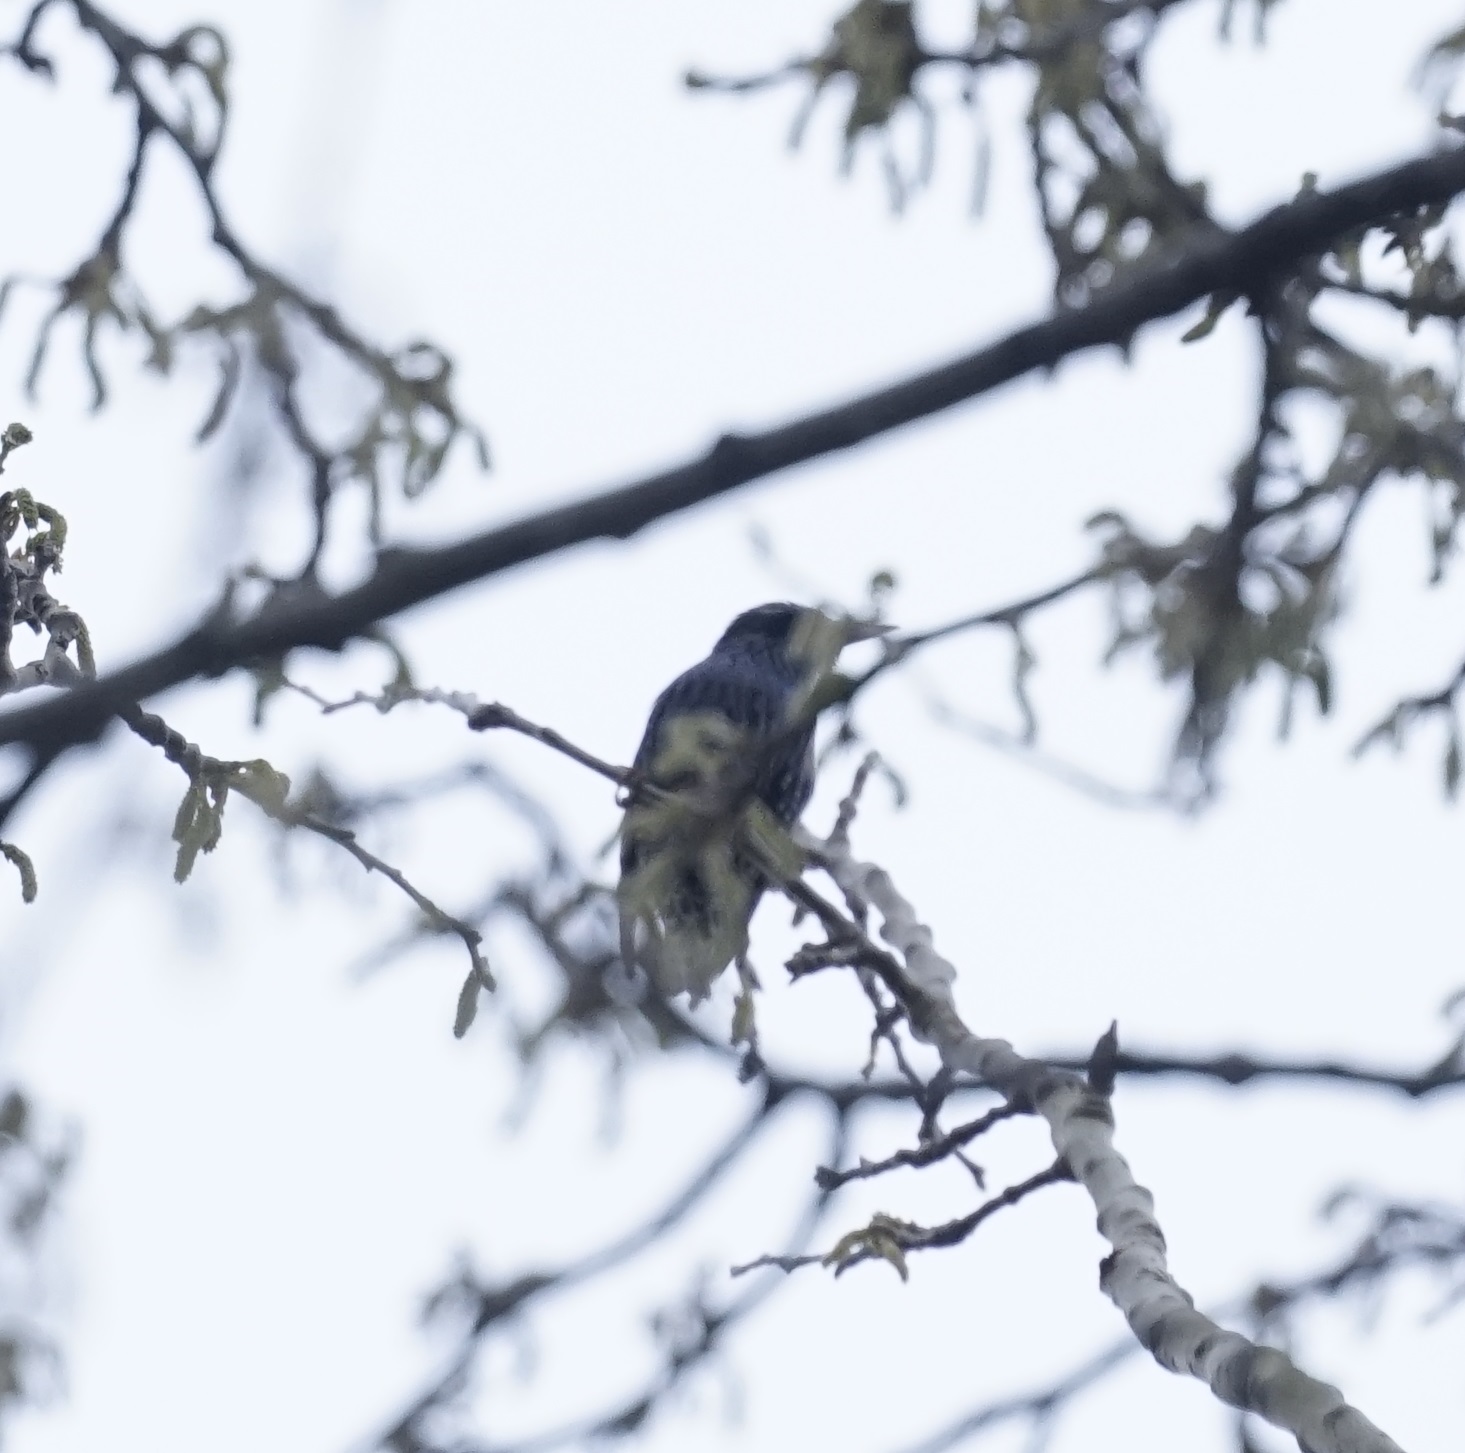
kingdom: Animalia
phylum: Chordata
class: Aves
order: Passeriformes
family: Sturnidae
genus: Sturnus
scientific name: Sturnus vulgaris
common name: Common starling
